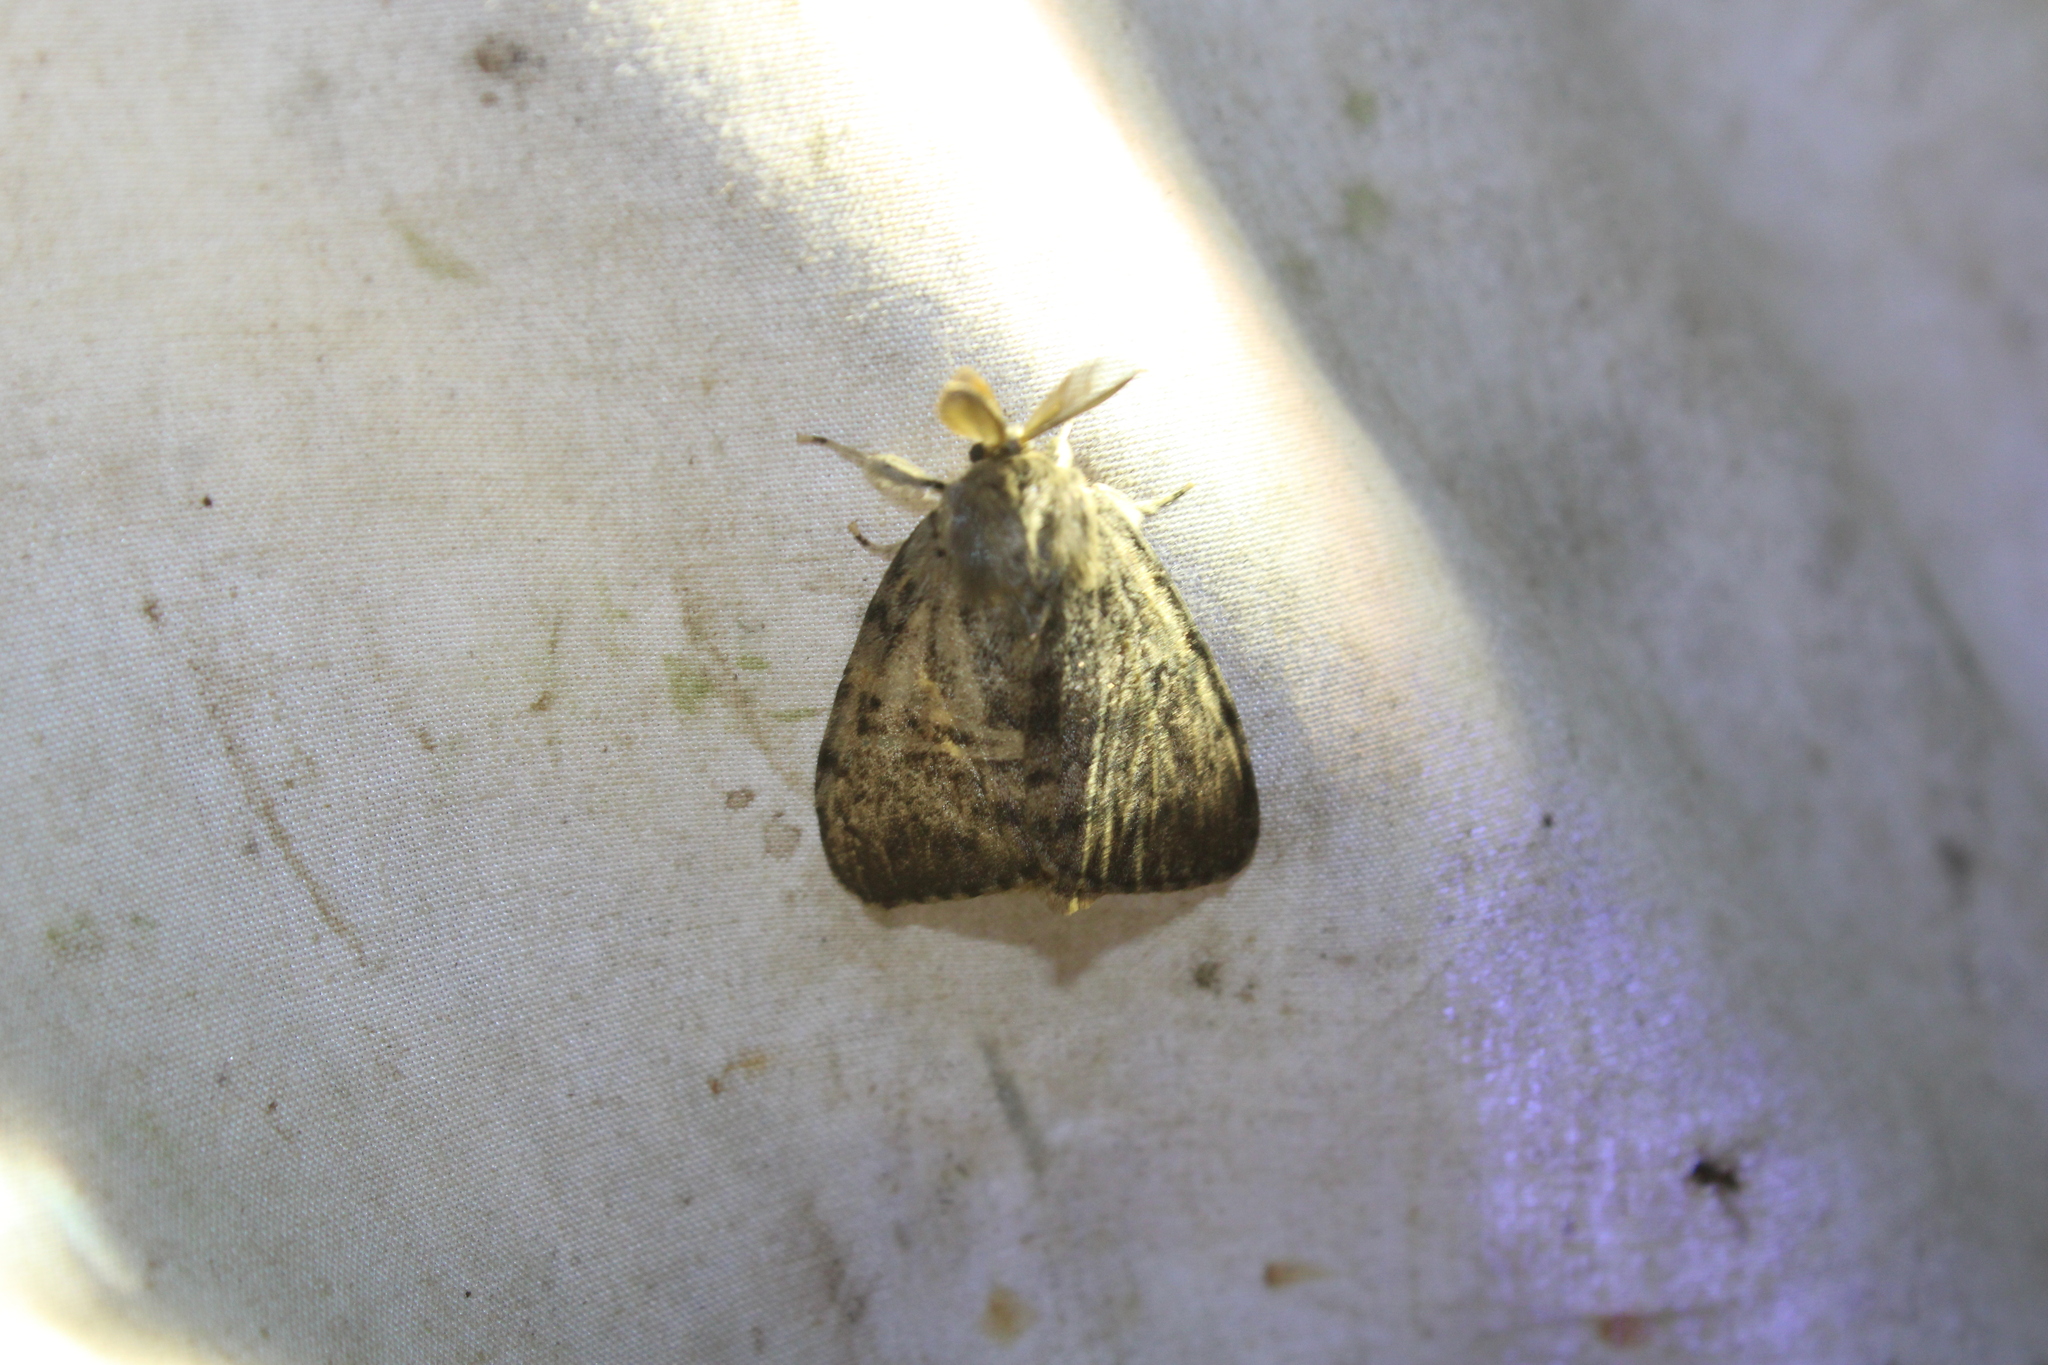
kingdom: Animalia
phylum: Arthropoda
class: Insecta
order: Lepidoptera
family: Erebidae
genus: Lymantria
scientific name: Lymantria dispar
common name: Gypsy moth
